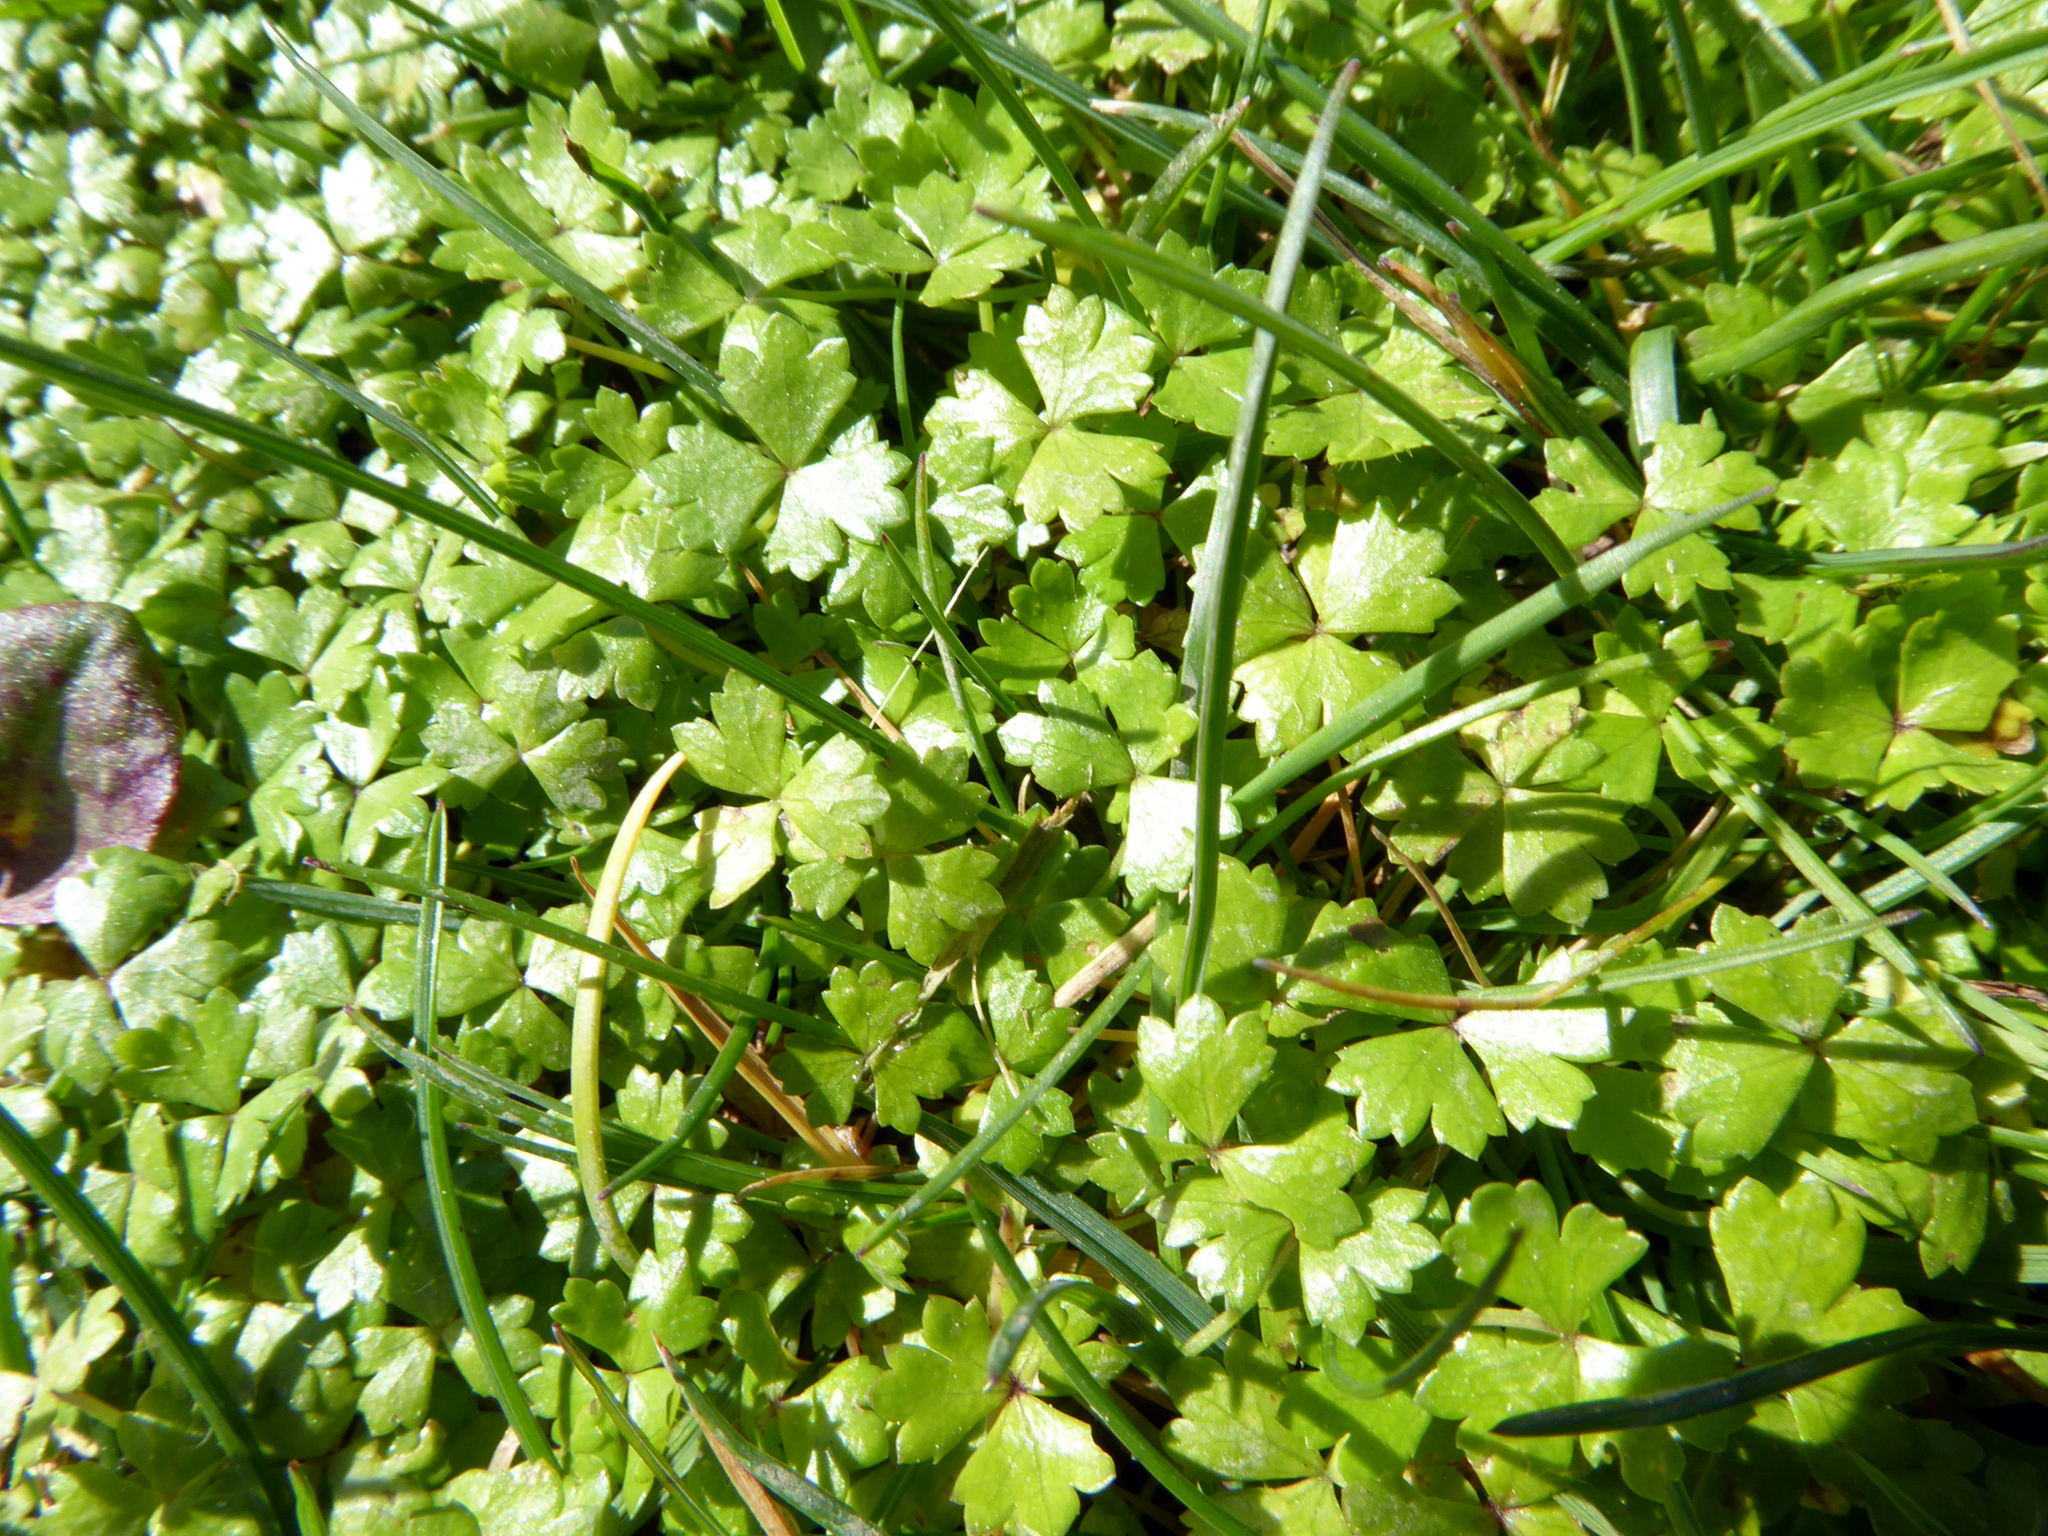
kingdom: Plantae
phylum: Tracheophyta
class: Magnoliopsida
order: Apiales
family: Araliaceae
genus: Hydrocotyle
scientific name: Hydrocotyle tripartita
